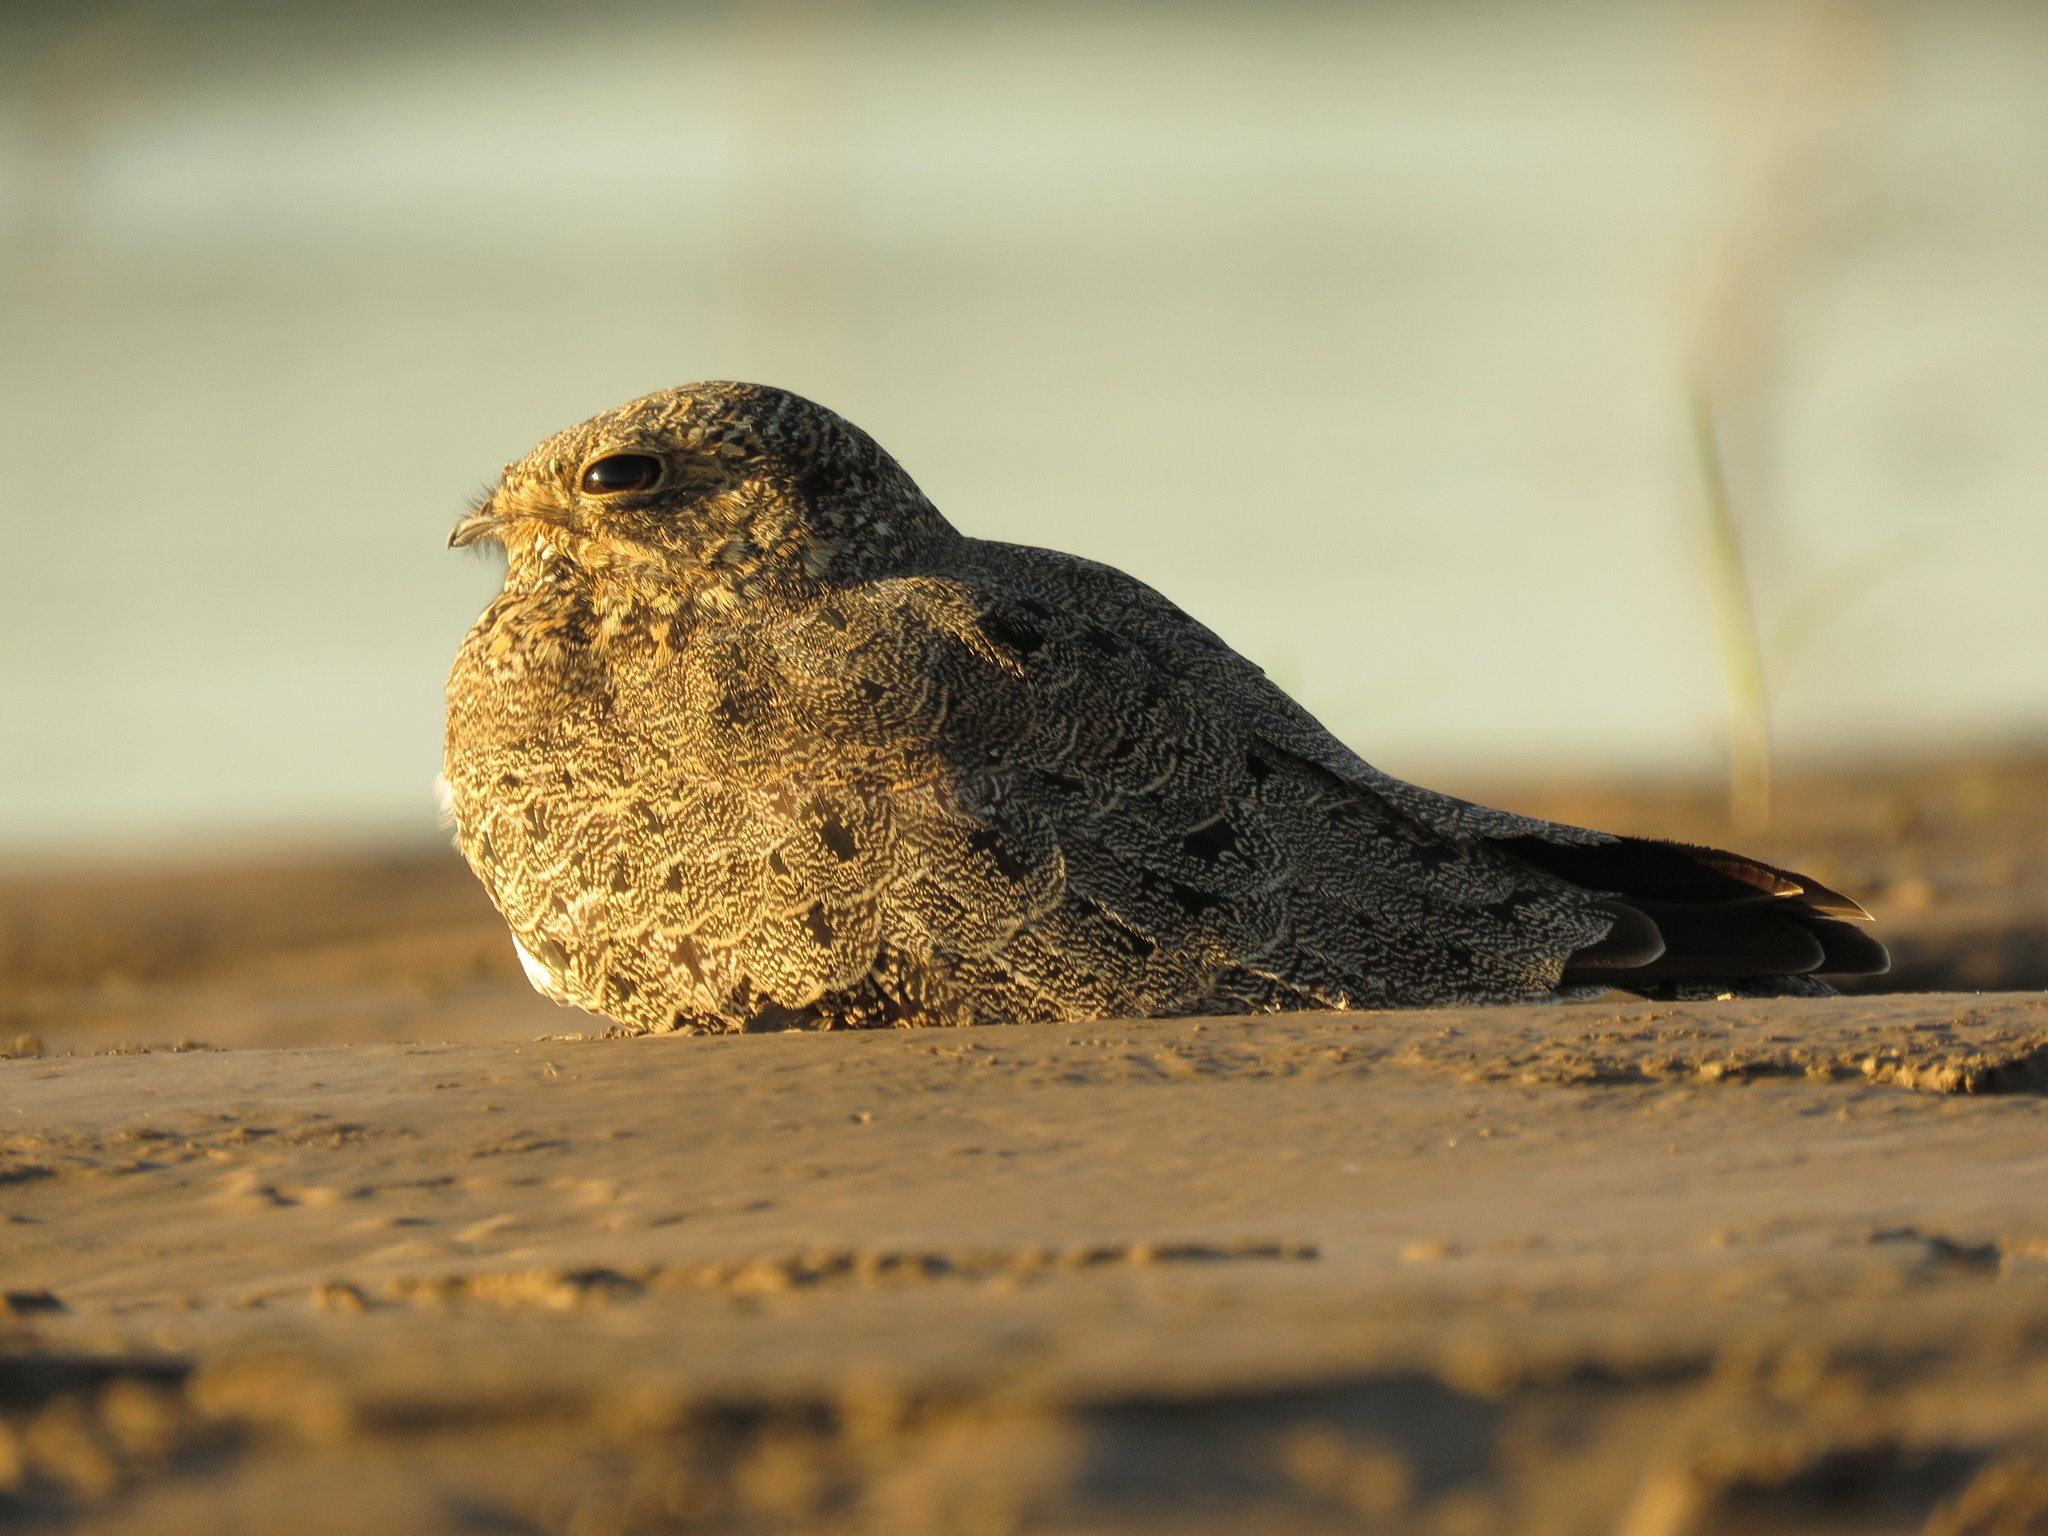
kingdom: Animalia
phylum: Chordata
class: Aves
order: Caprimulgiformes
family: Caprimulgidae
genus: Chordeiles
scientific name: Chordeiles nacunda
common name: Nacunda nighthawk
